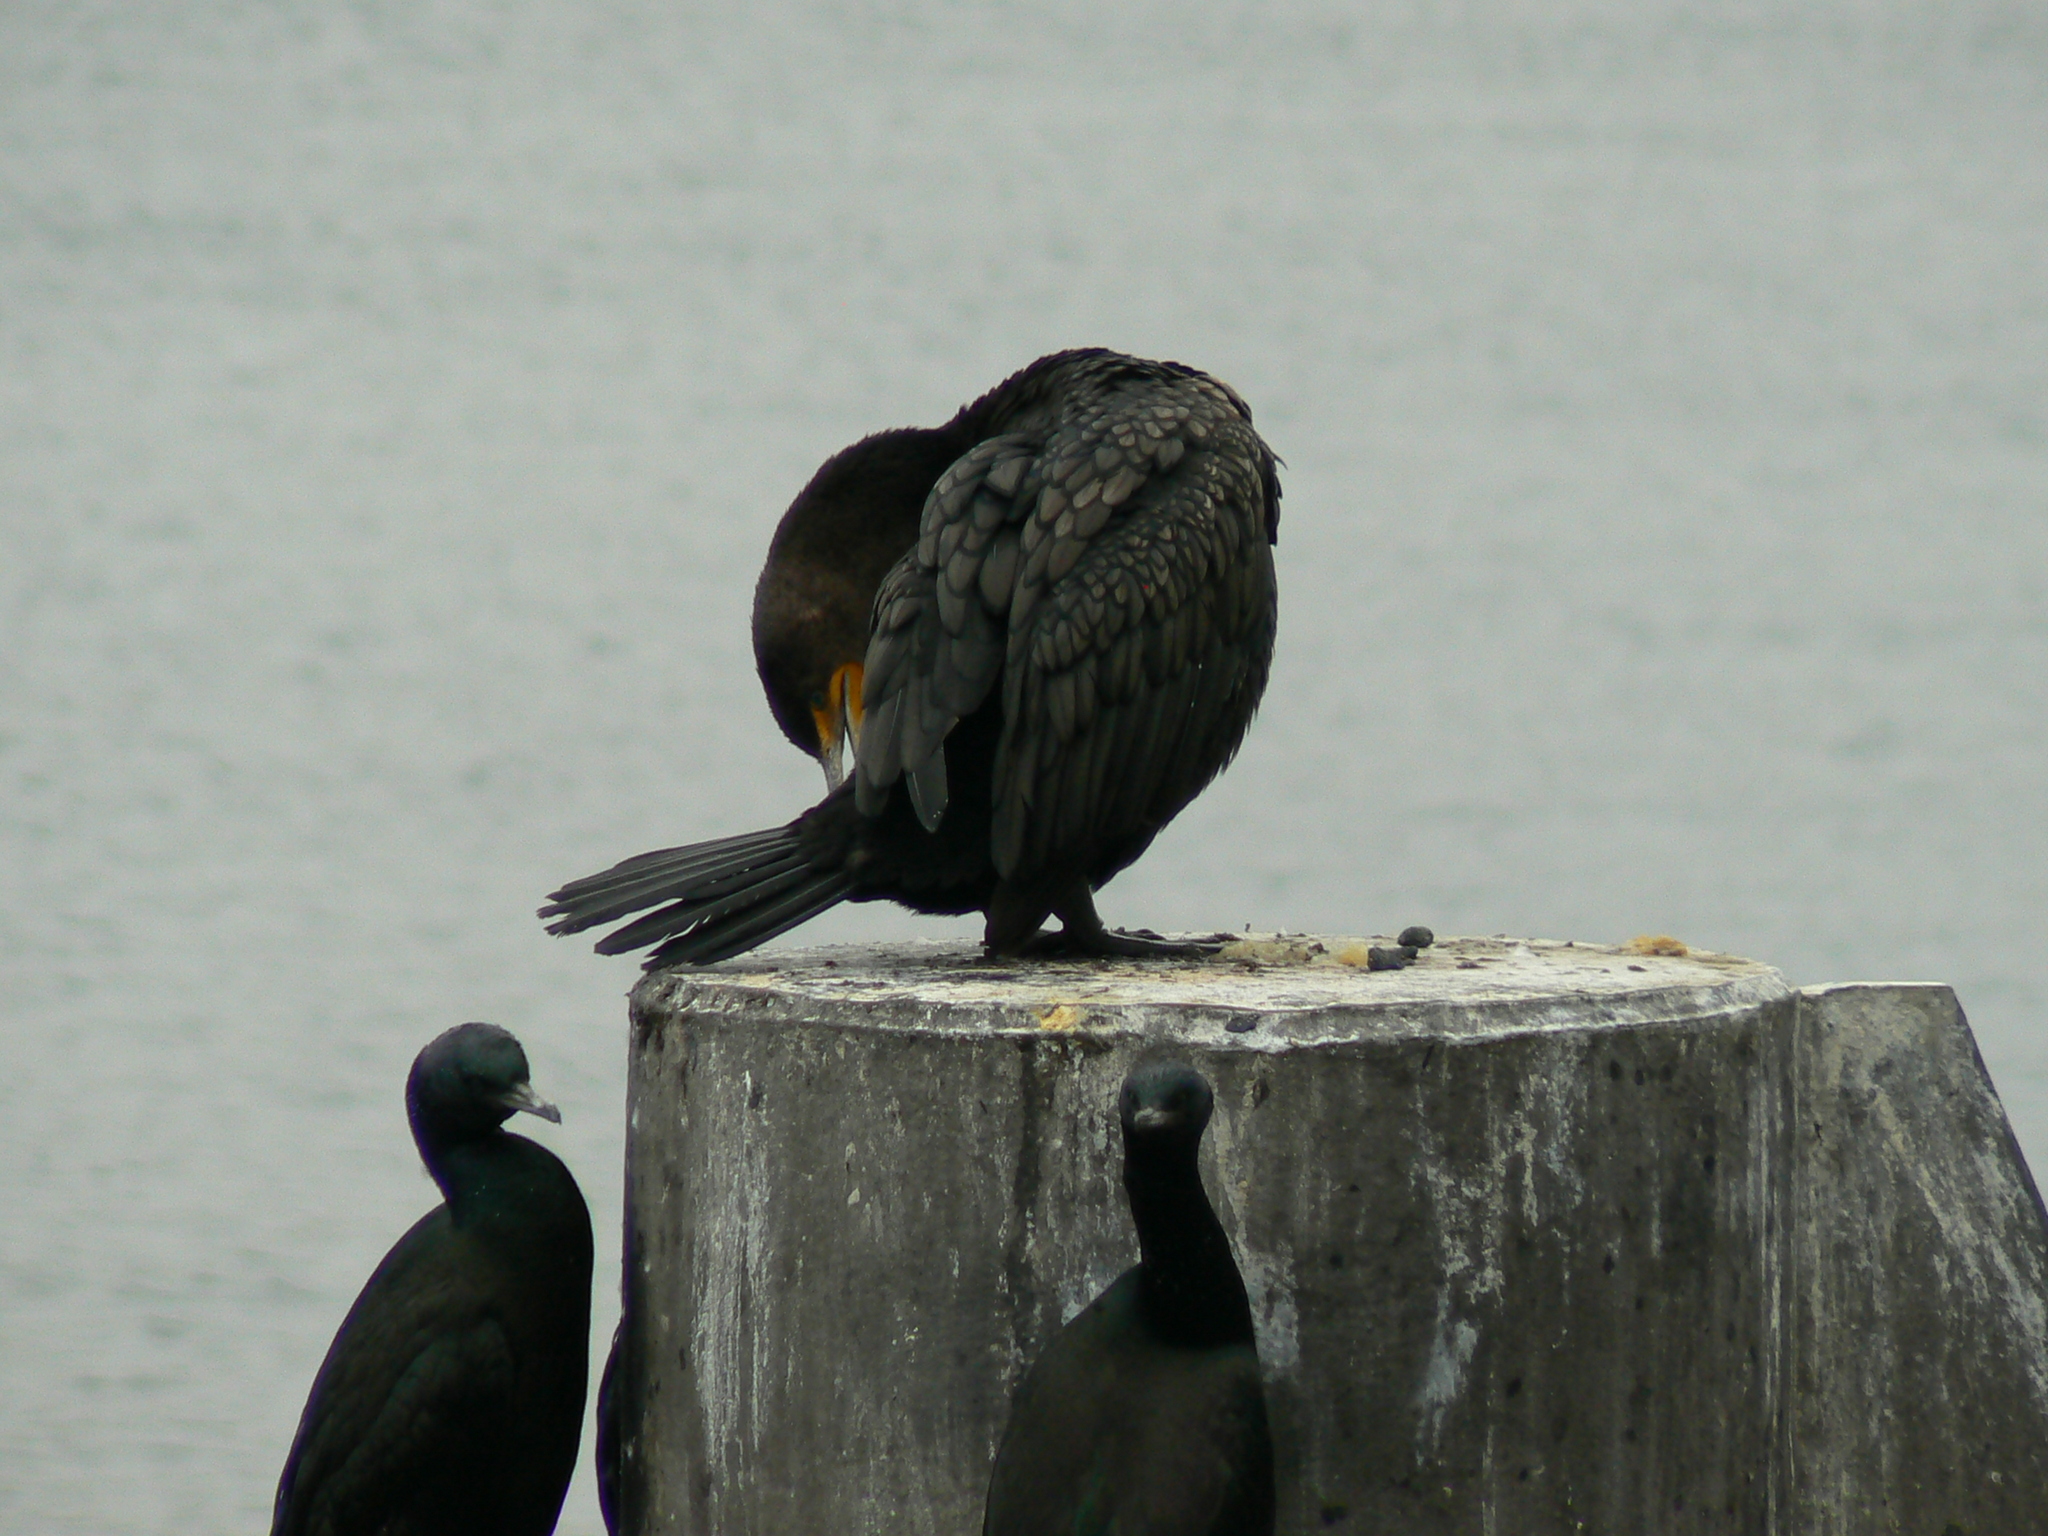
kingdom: Animalia
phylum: Chordata
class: Aves
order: Suliformes
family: Phalacrocoracidae
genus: Phalacrocorax
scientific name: Phalacrocorax auritus
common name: Double-crested cormorant
